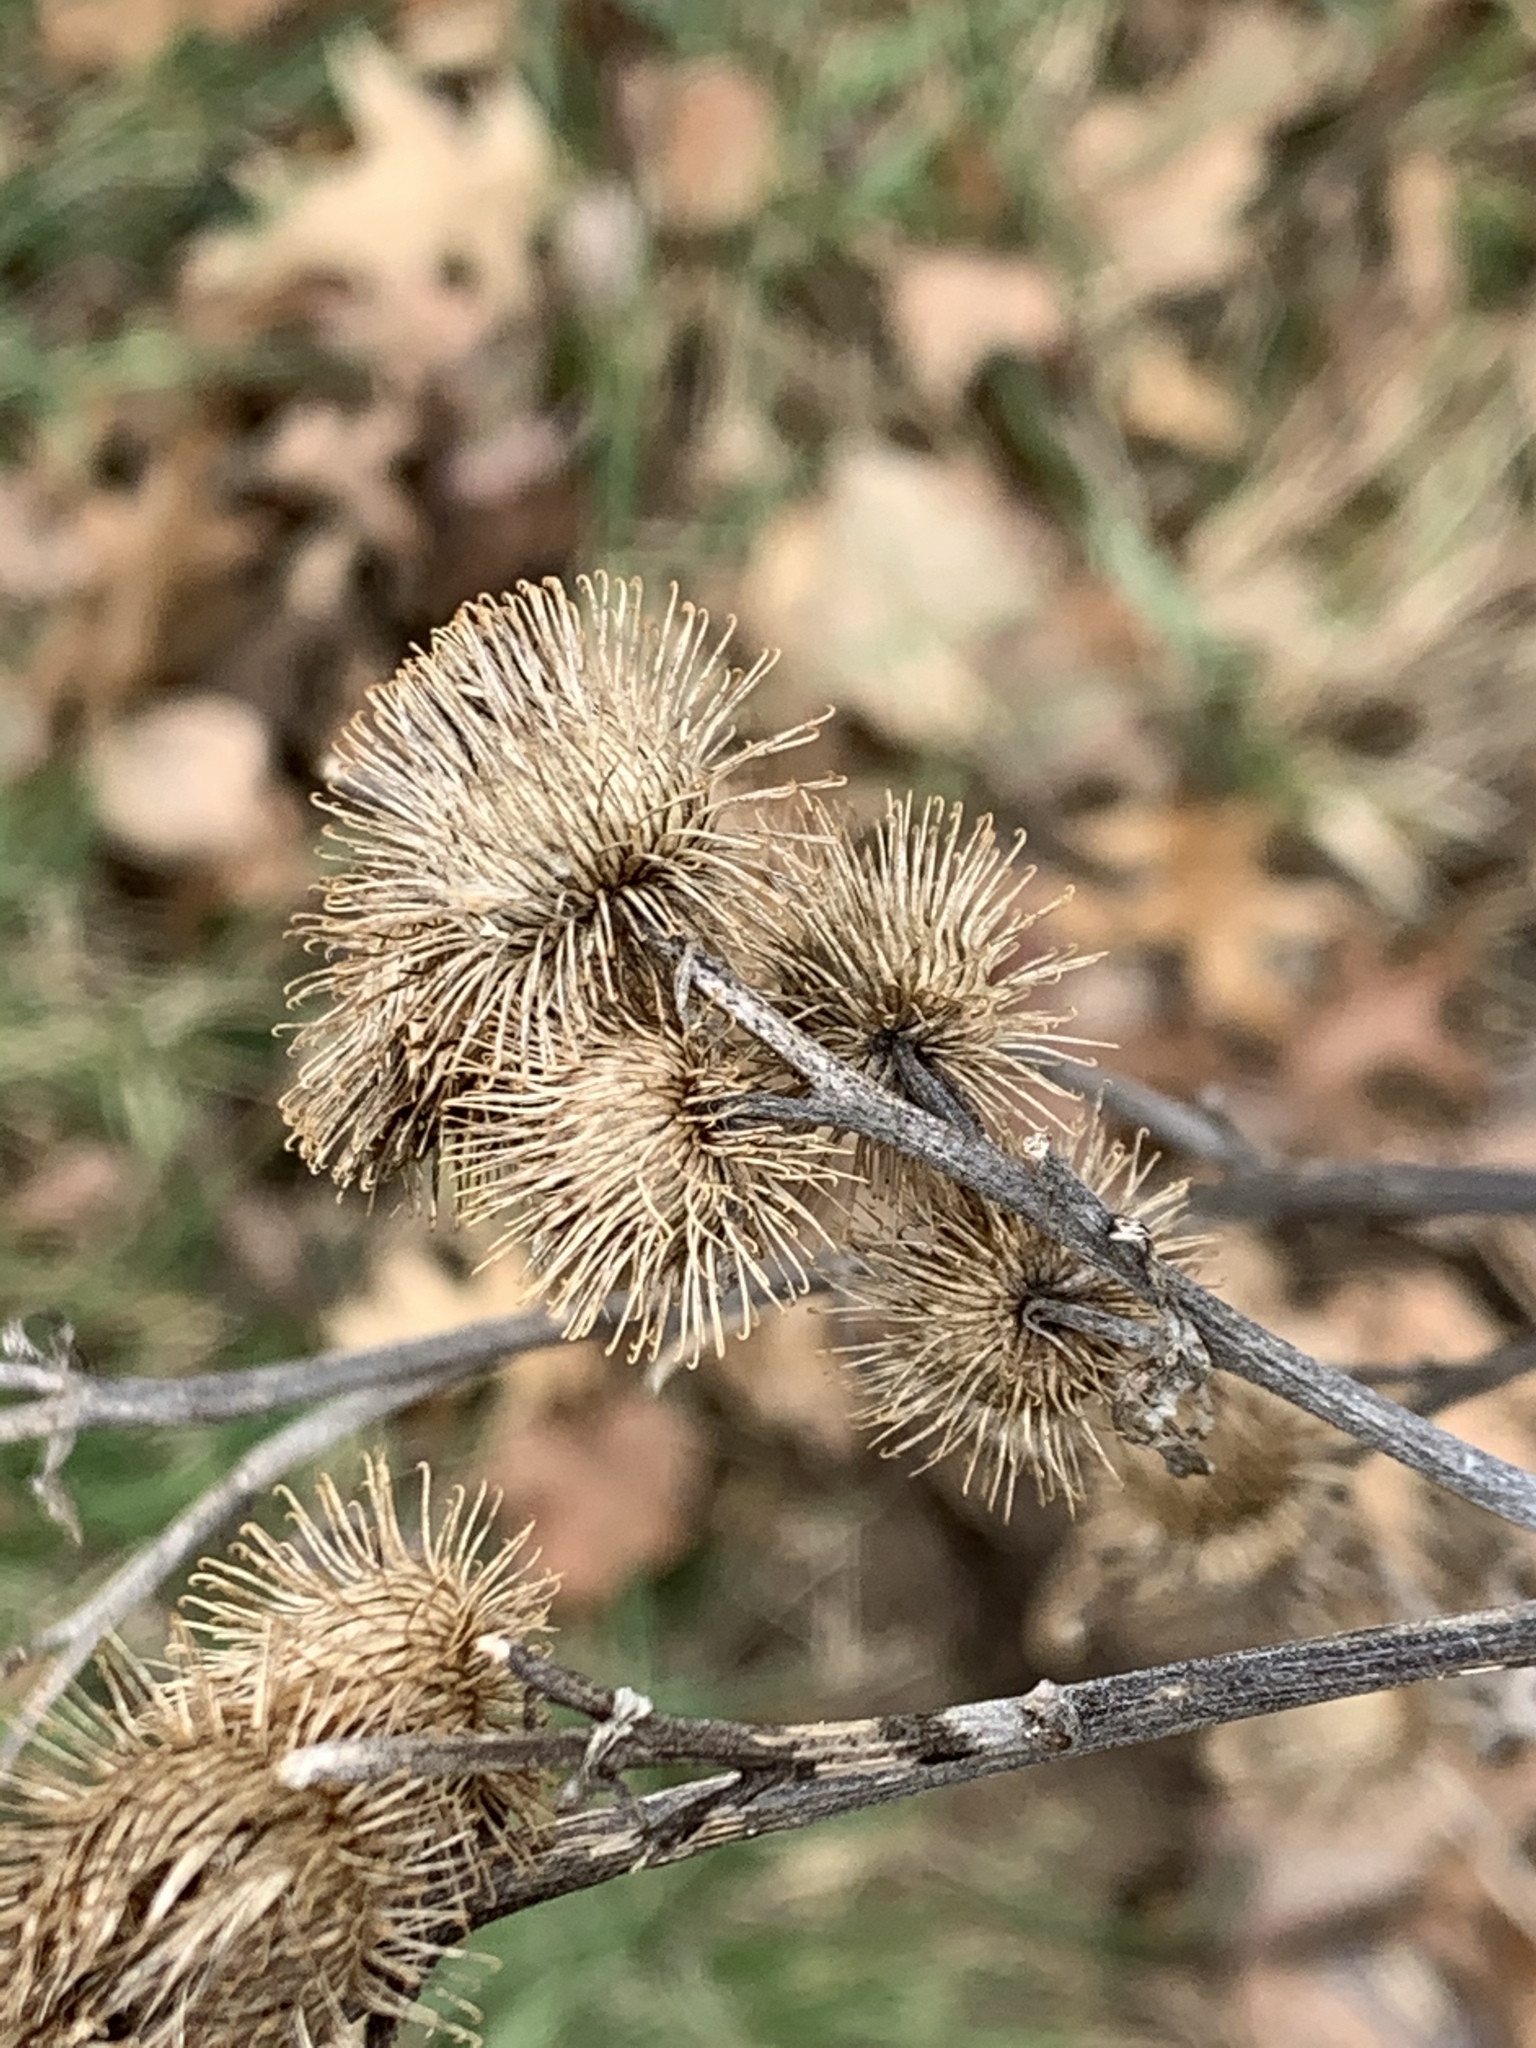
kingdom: Plantae
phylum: Tracheophyta
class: Magnoliopsida
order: Asterales
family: Asteraceae
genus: Arctium
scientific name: Arctium minus
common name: Lesser burdock
